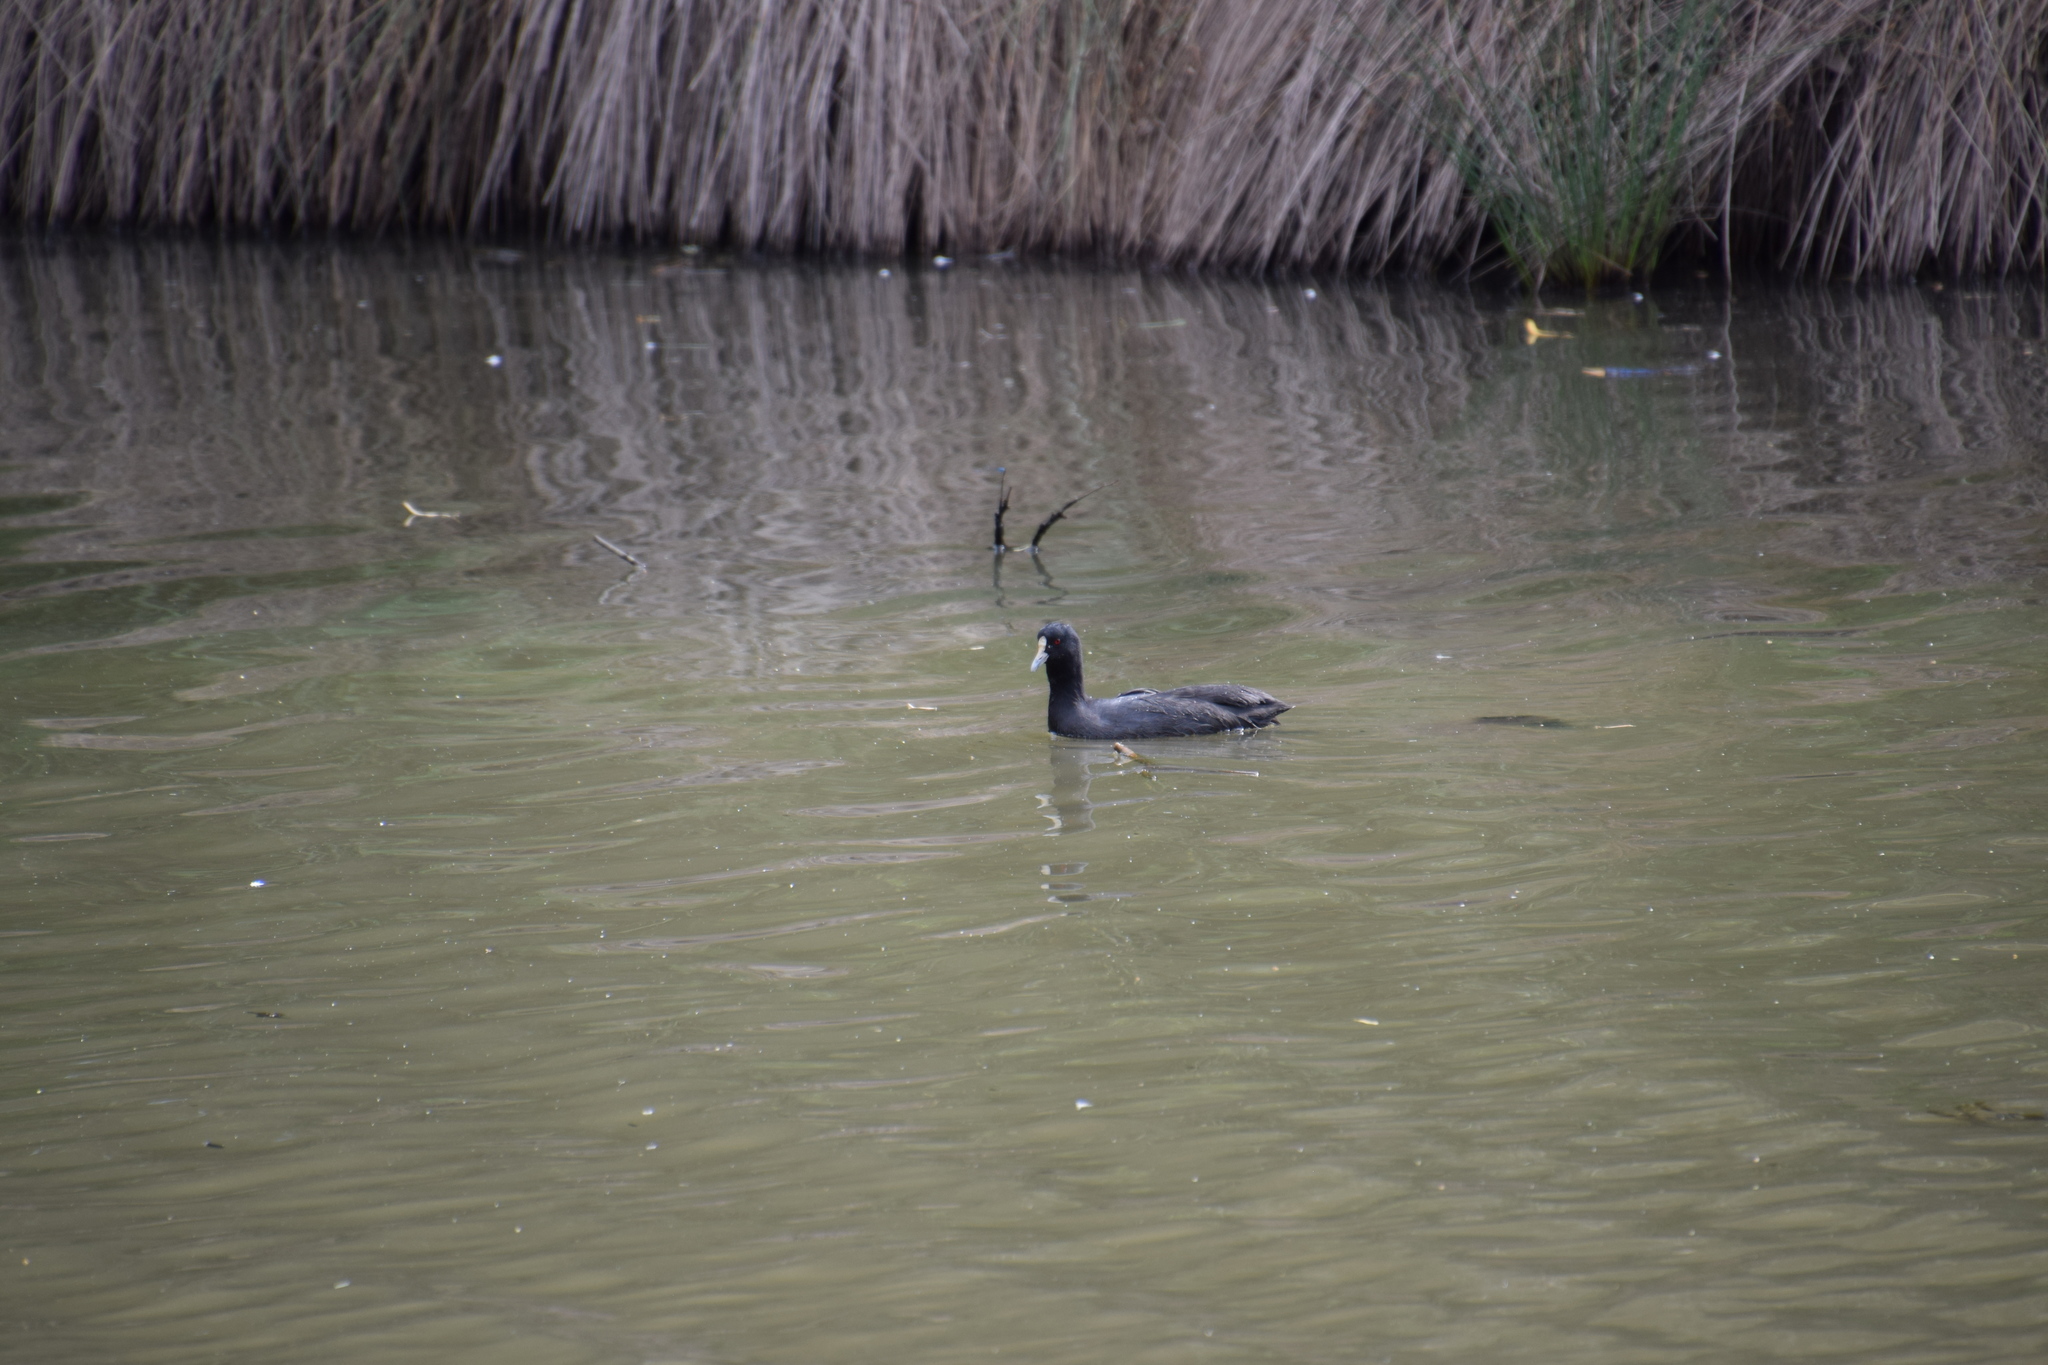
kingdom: Animalia
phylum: Chordata
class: Aves
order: Gruiformes
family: Rallidae
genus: Fulica
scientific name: Fulica atra
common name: Eurasian coot
